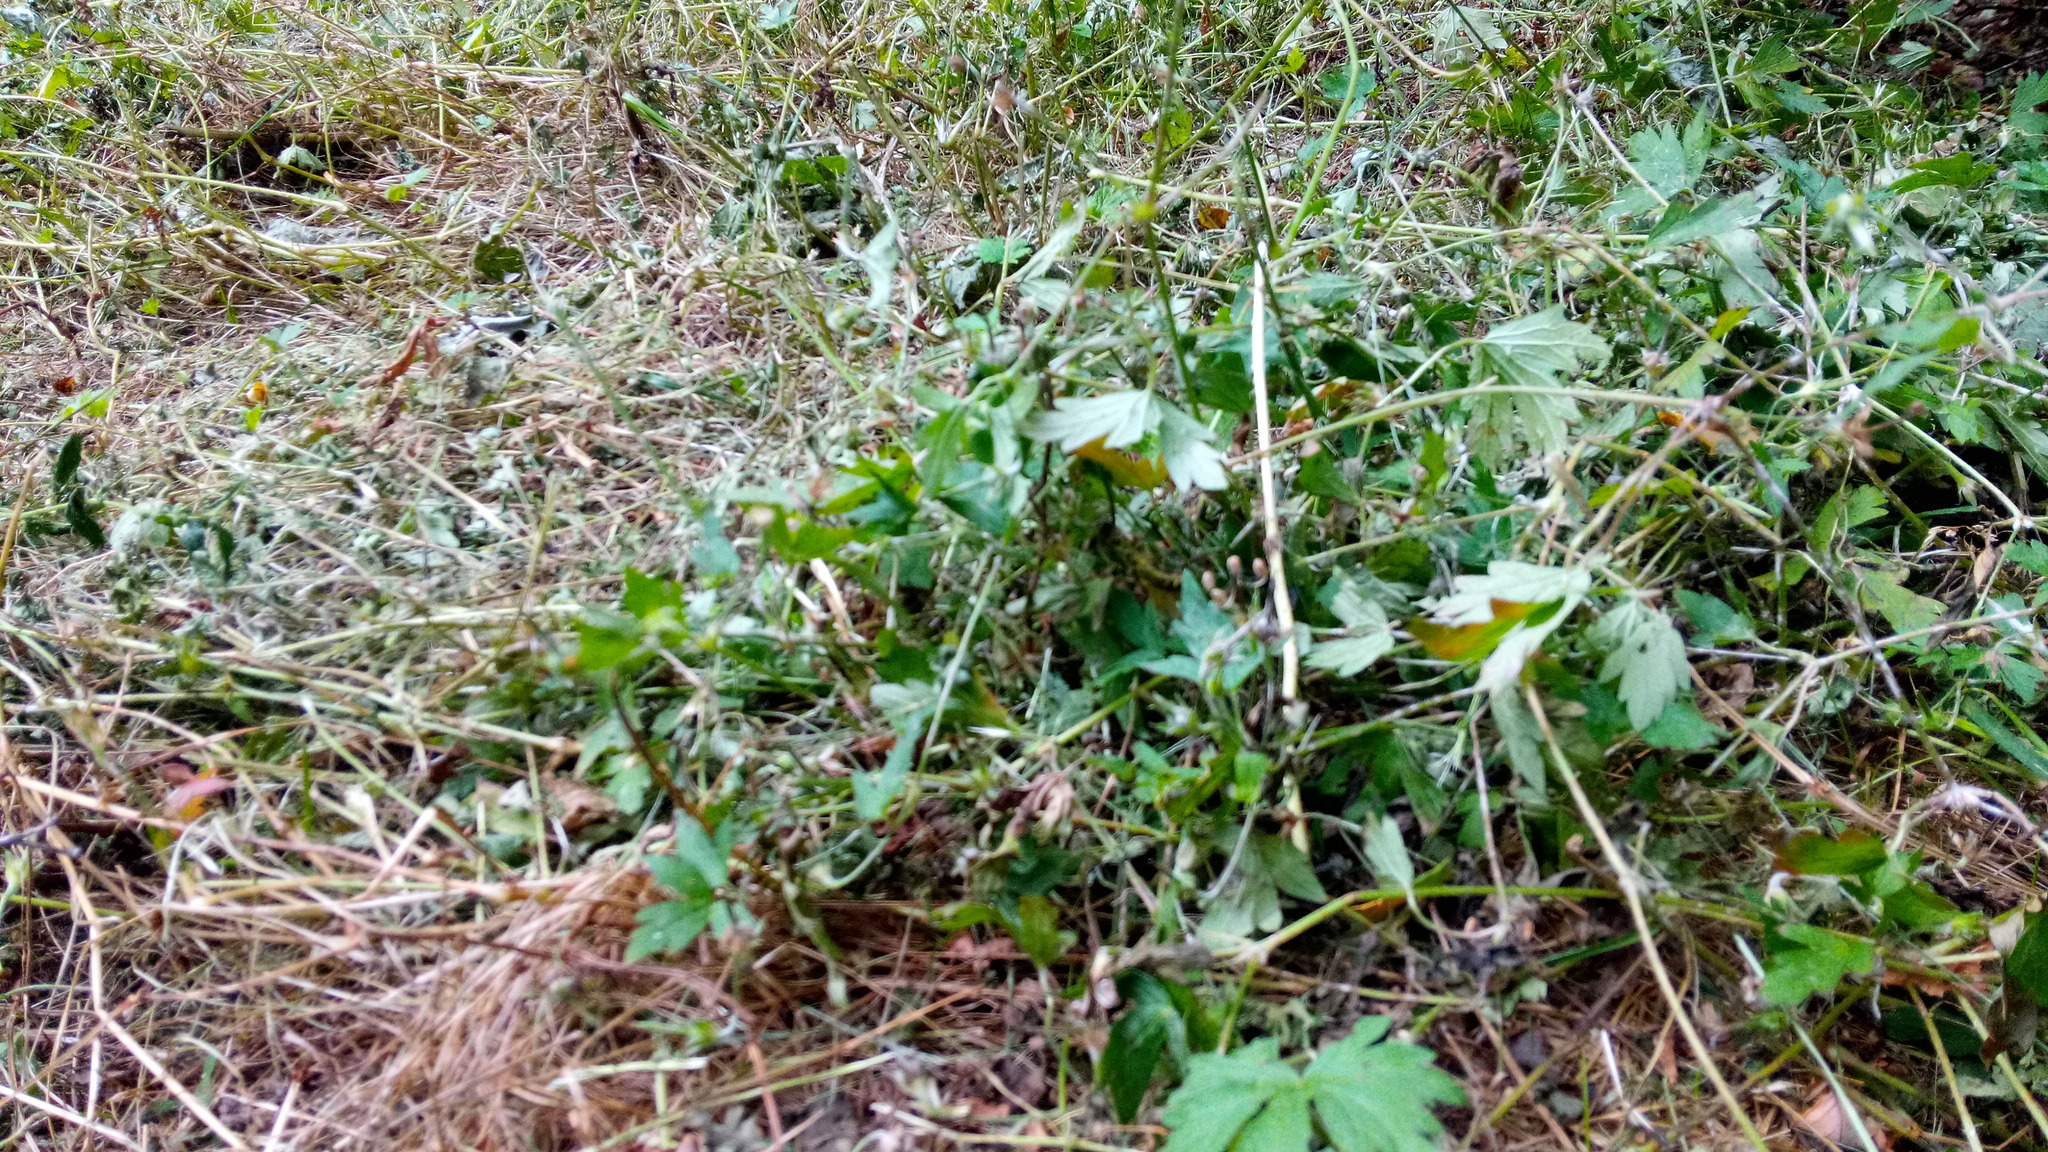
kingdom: Plantae
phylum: Tracheophyta
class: Magnoliopsida
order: Geraniales
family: Geraniaceae
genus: Geranium
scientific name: Geranium sibiricum
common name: Siberian crane's-bill
